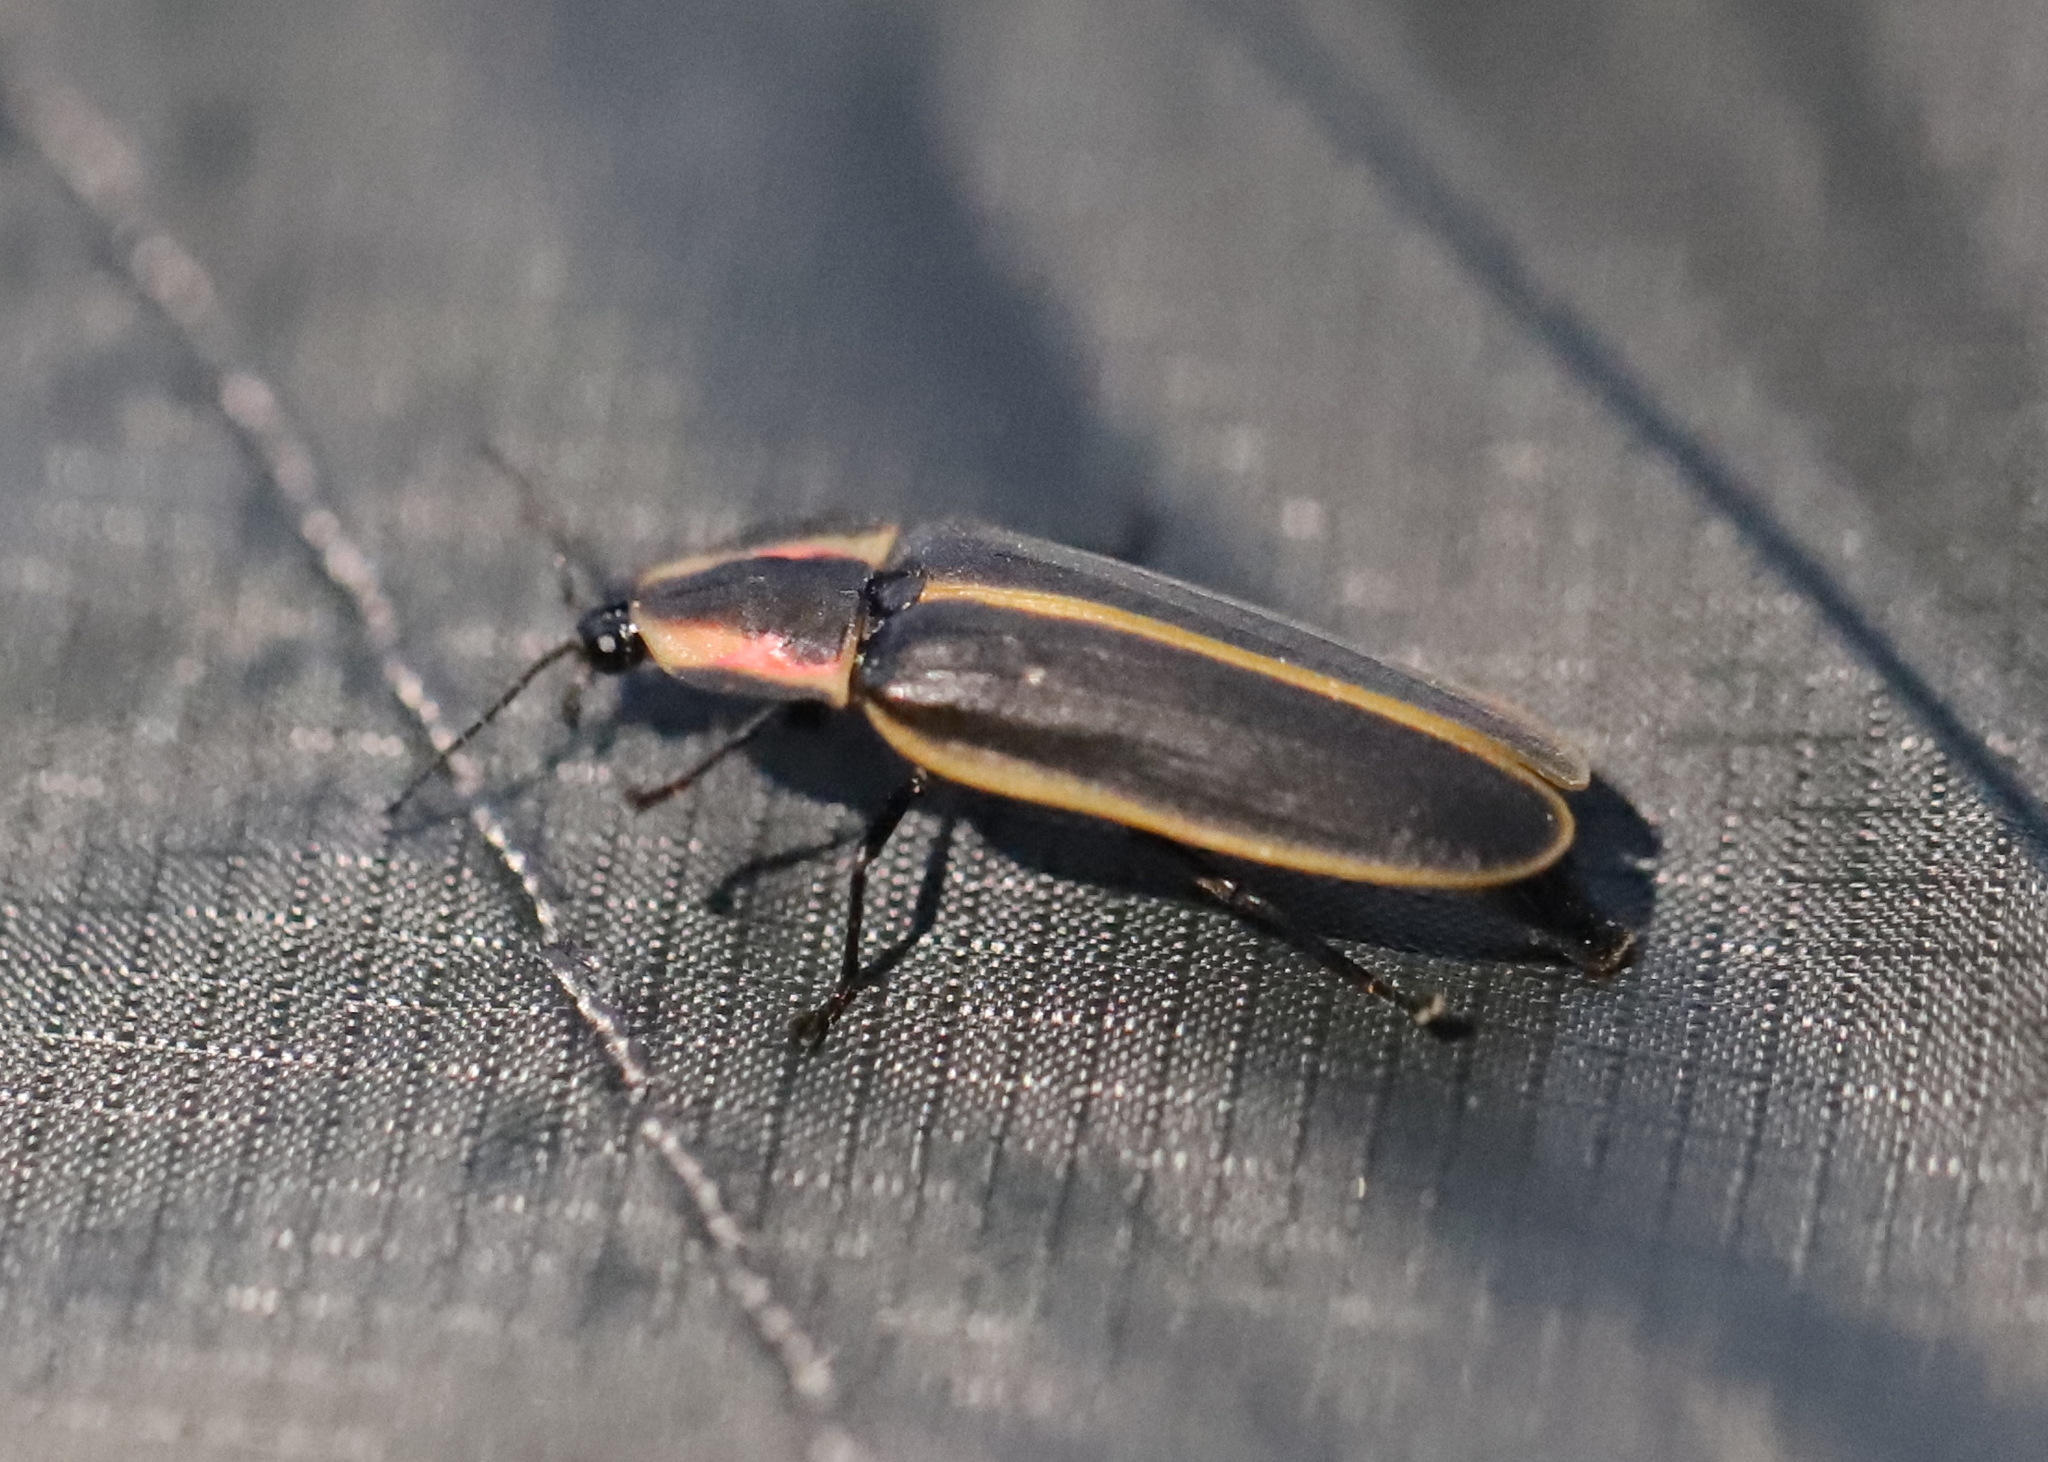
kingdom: Animalia
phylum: Arthropoda
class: Insecta
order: Coleoptera
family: Lampyridae
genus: Pyractomena
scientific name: Pyractomena borealis
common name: Northern firefly
